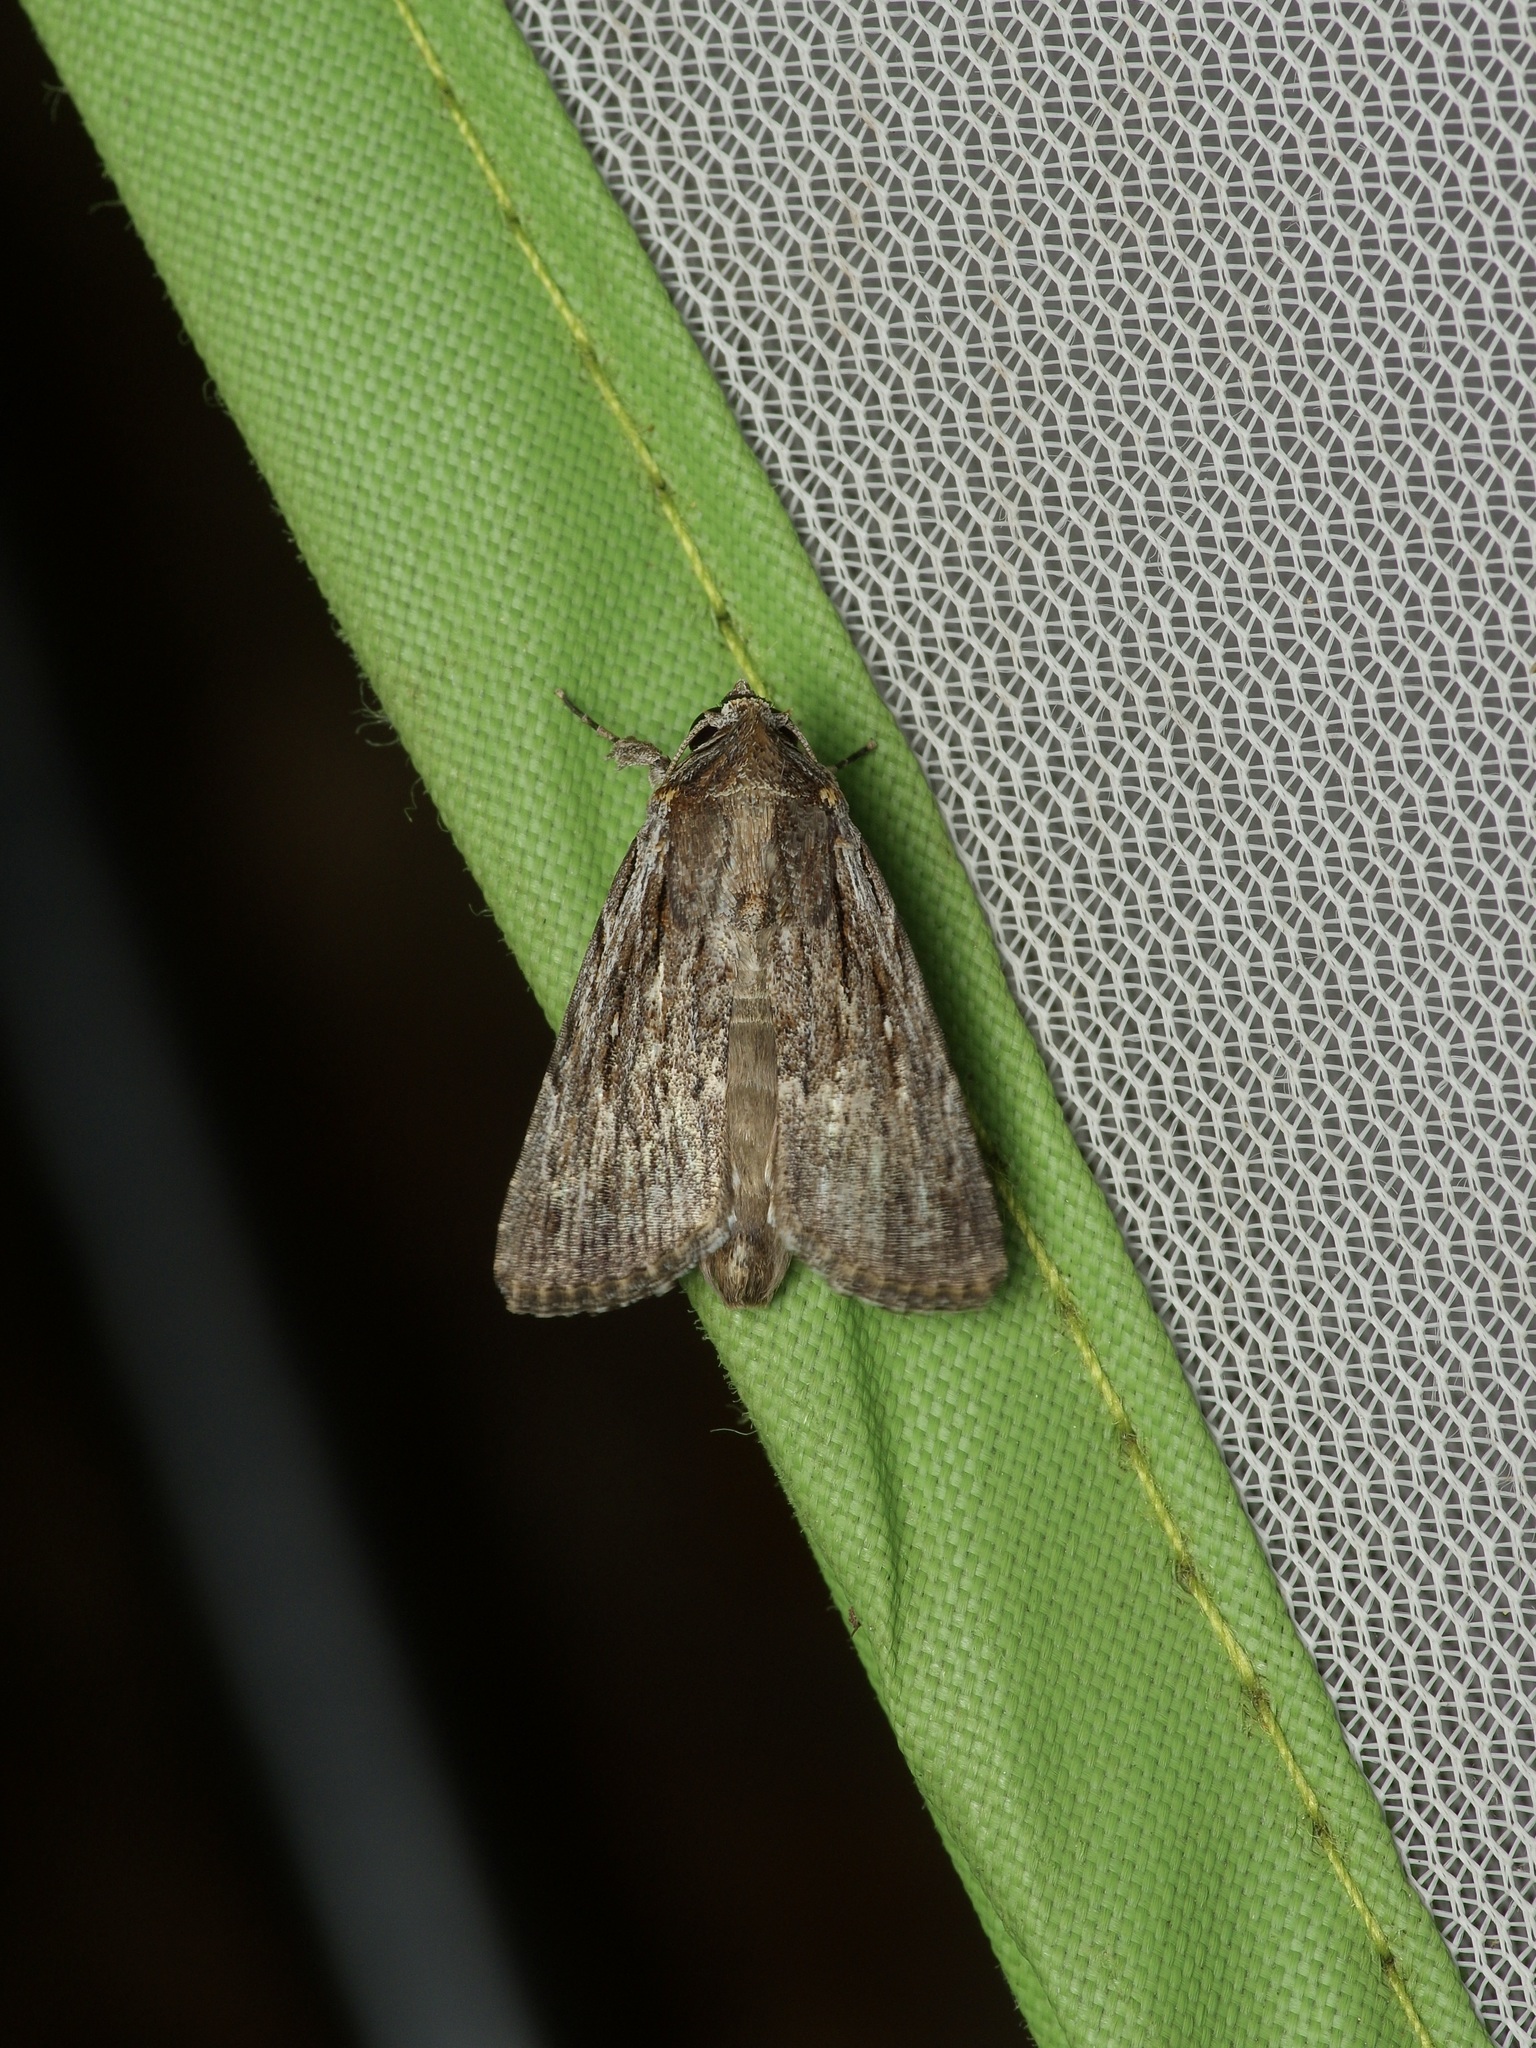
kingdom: Animalia
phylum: Arthropoda
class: Insecta
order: Lepidoptera
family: Noctuidae
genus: Neogalea
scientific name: Neogalea sunia
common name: Lantana stick caterpillar
